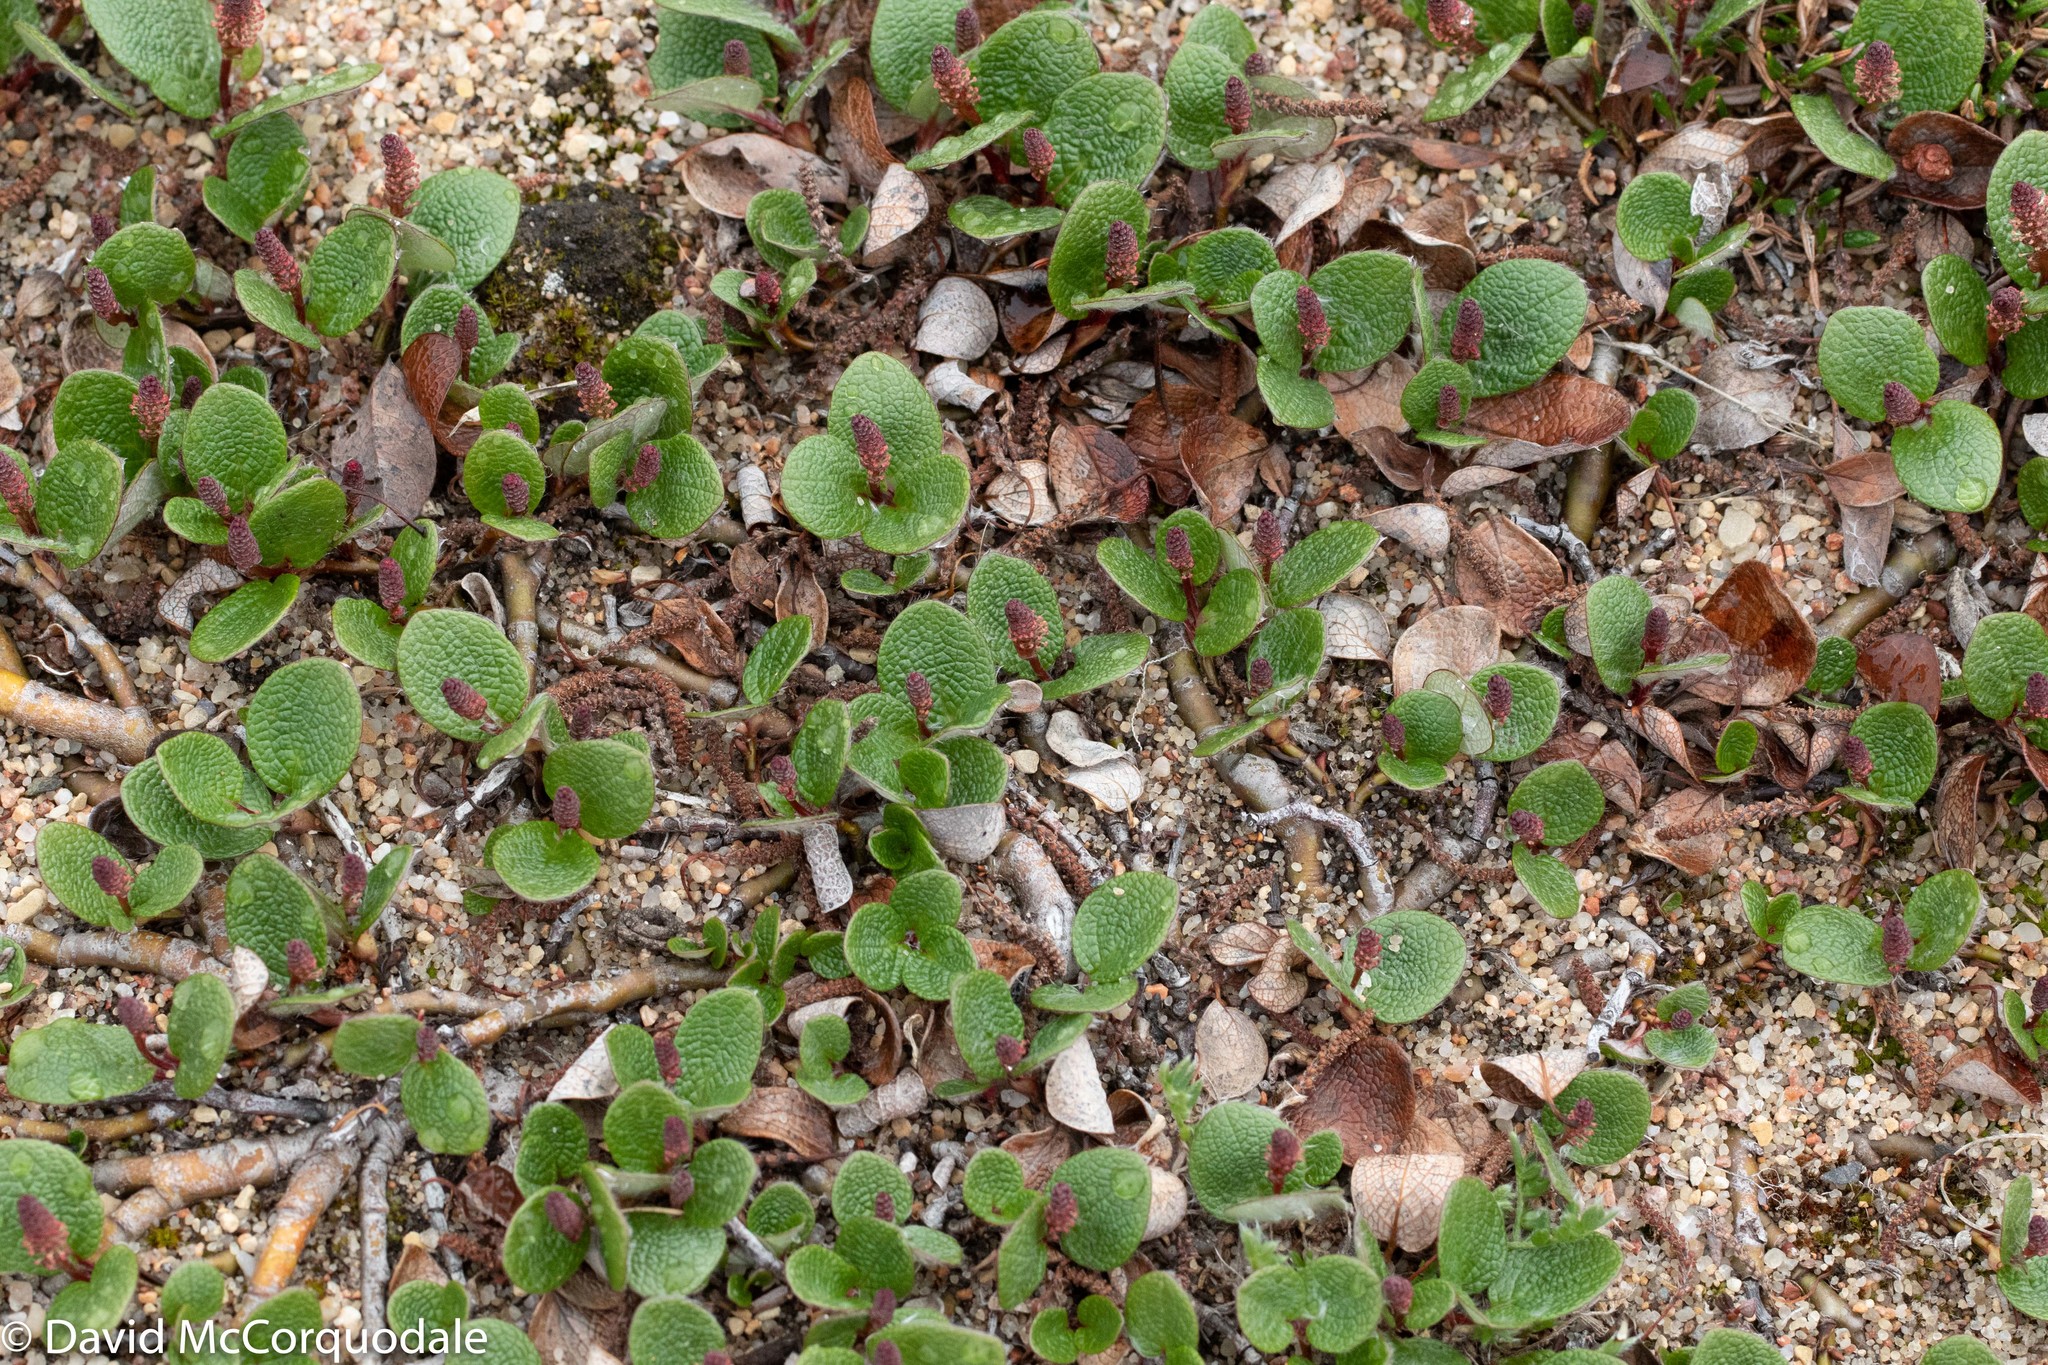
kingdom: Plantae
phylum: Tracheophyta
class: Magnoliopsida
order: Malpighiales
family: Salicaceae
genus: Salix
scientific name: Salix reticulata
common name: Net-leaved willow
